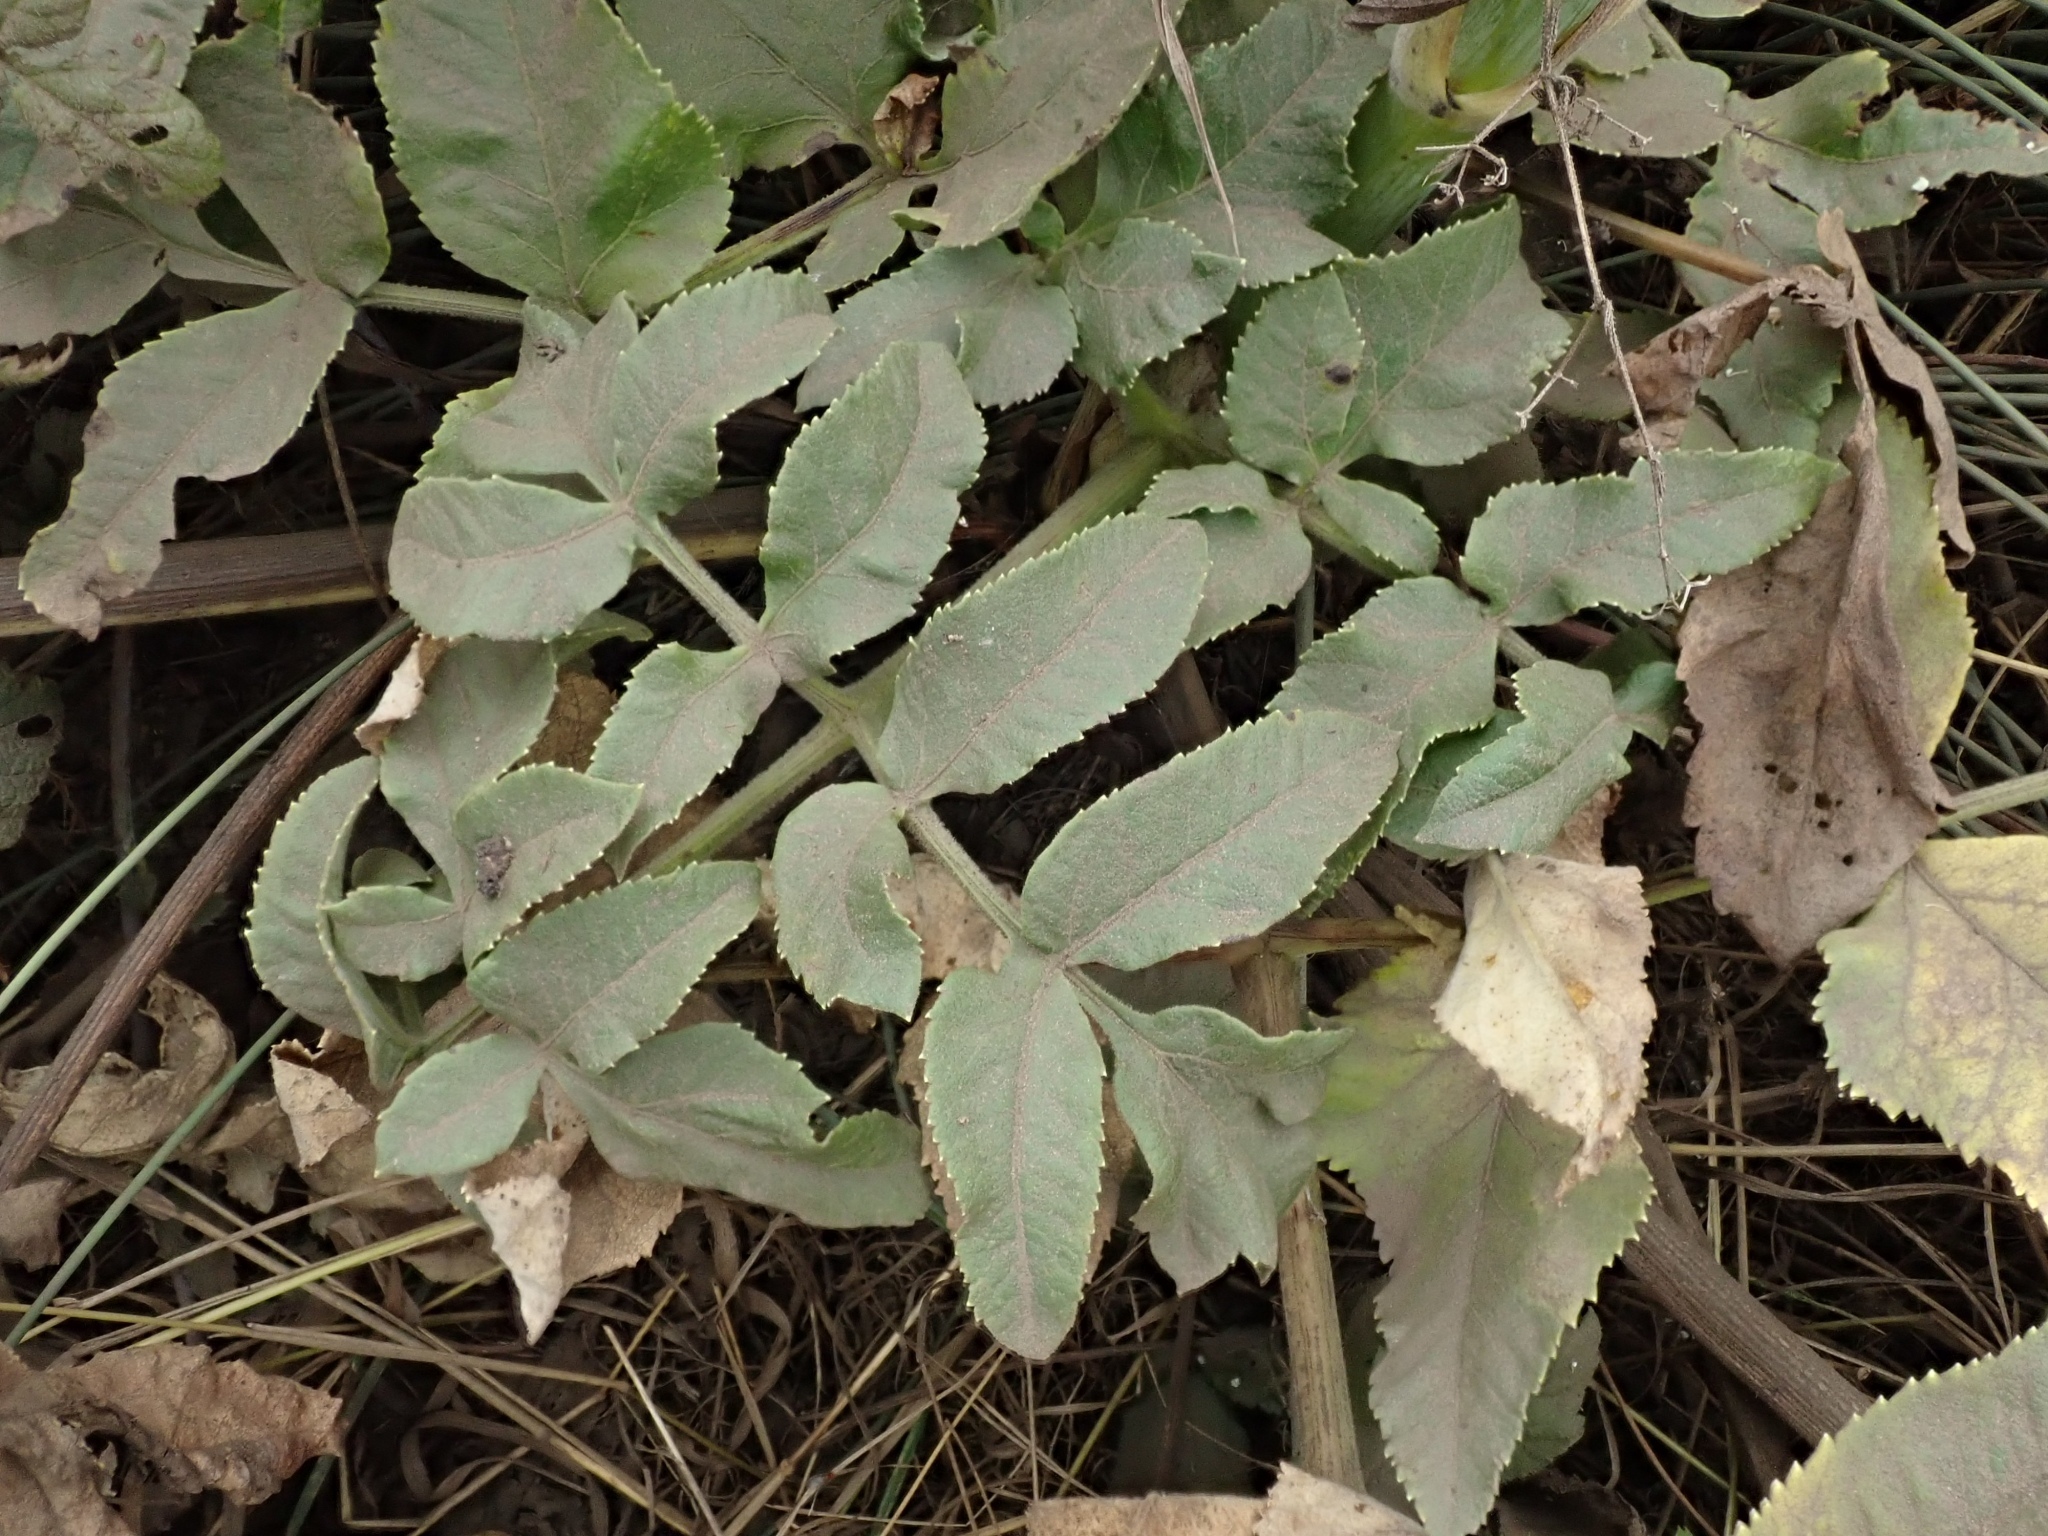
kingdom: Plantae
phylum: Tracheophyta
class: Magnoliopsida
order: Apiales
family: Apiaceae
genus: Angelica
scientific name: Angelica hendersonii
